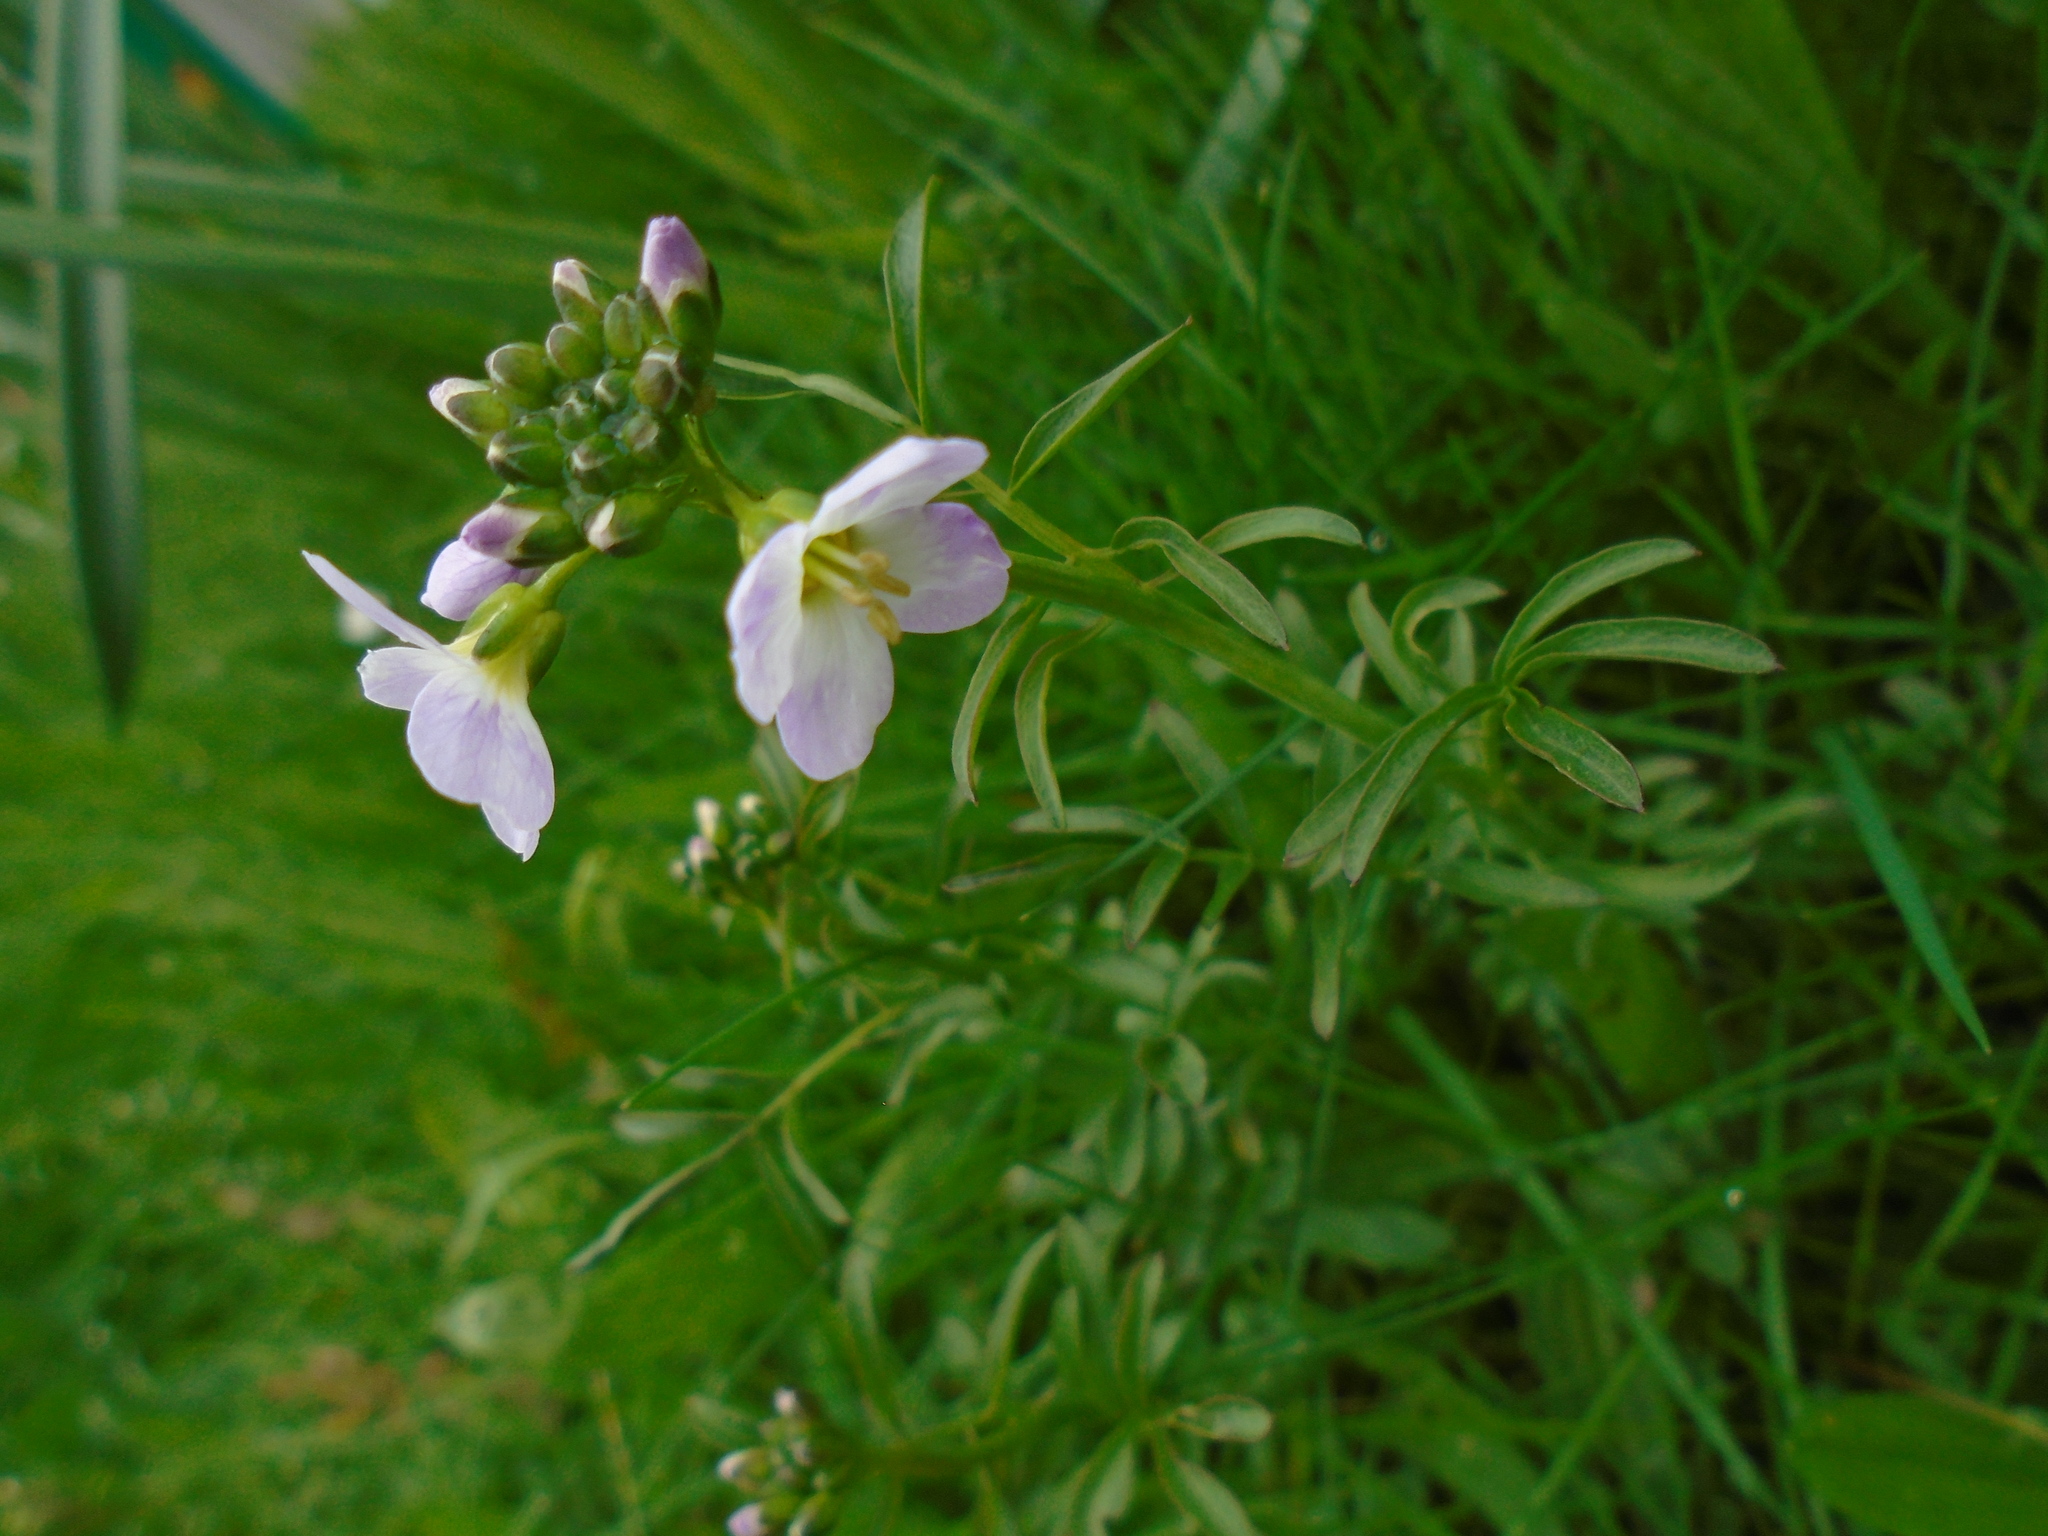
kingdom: Plantae
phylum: Tracheophyta
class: Magnoliopsida
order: Brassicales
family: Brassicaceae
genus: Cardamine
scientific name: Cardamine pratensis
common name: Cuckoo flower
